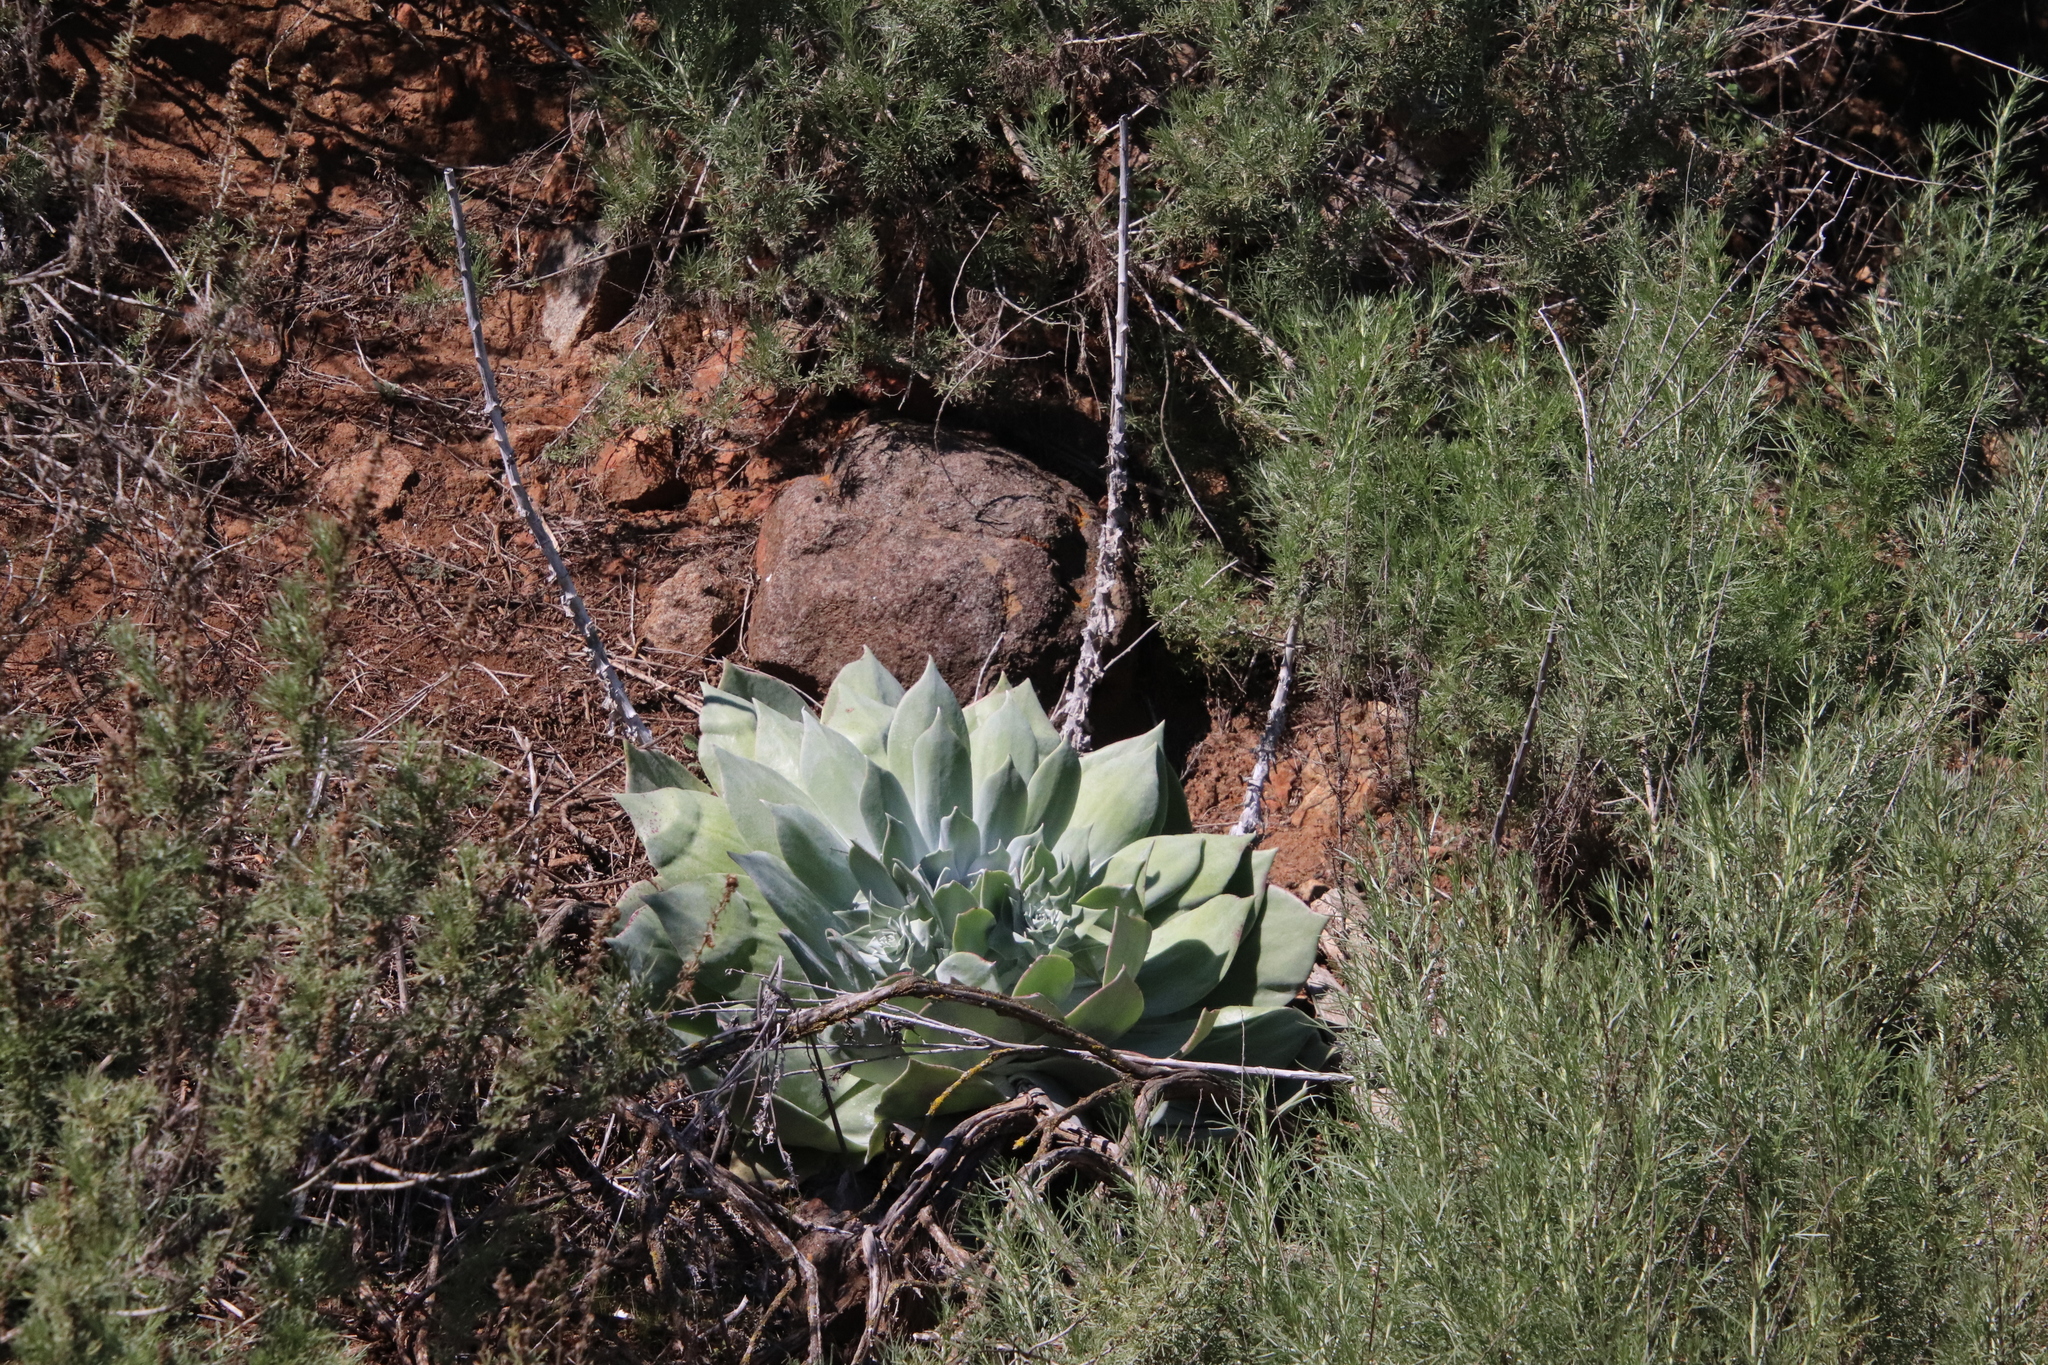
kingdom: Plantae
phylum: Tracheophyta
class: Magnoliopsida
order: Saxifragales
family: Crassulaceae
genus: Dudleya
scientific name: Dudleya pulverulenta
